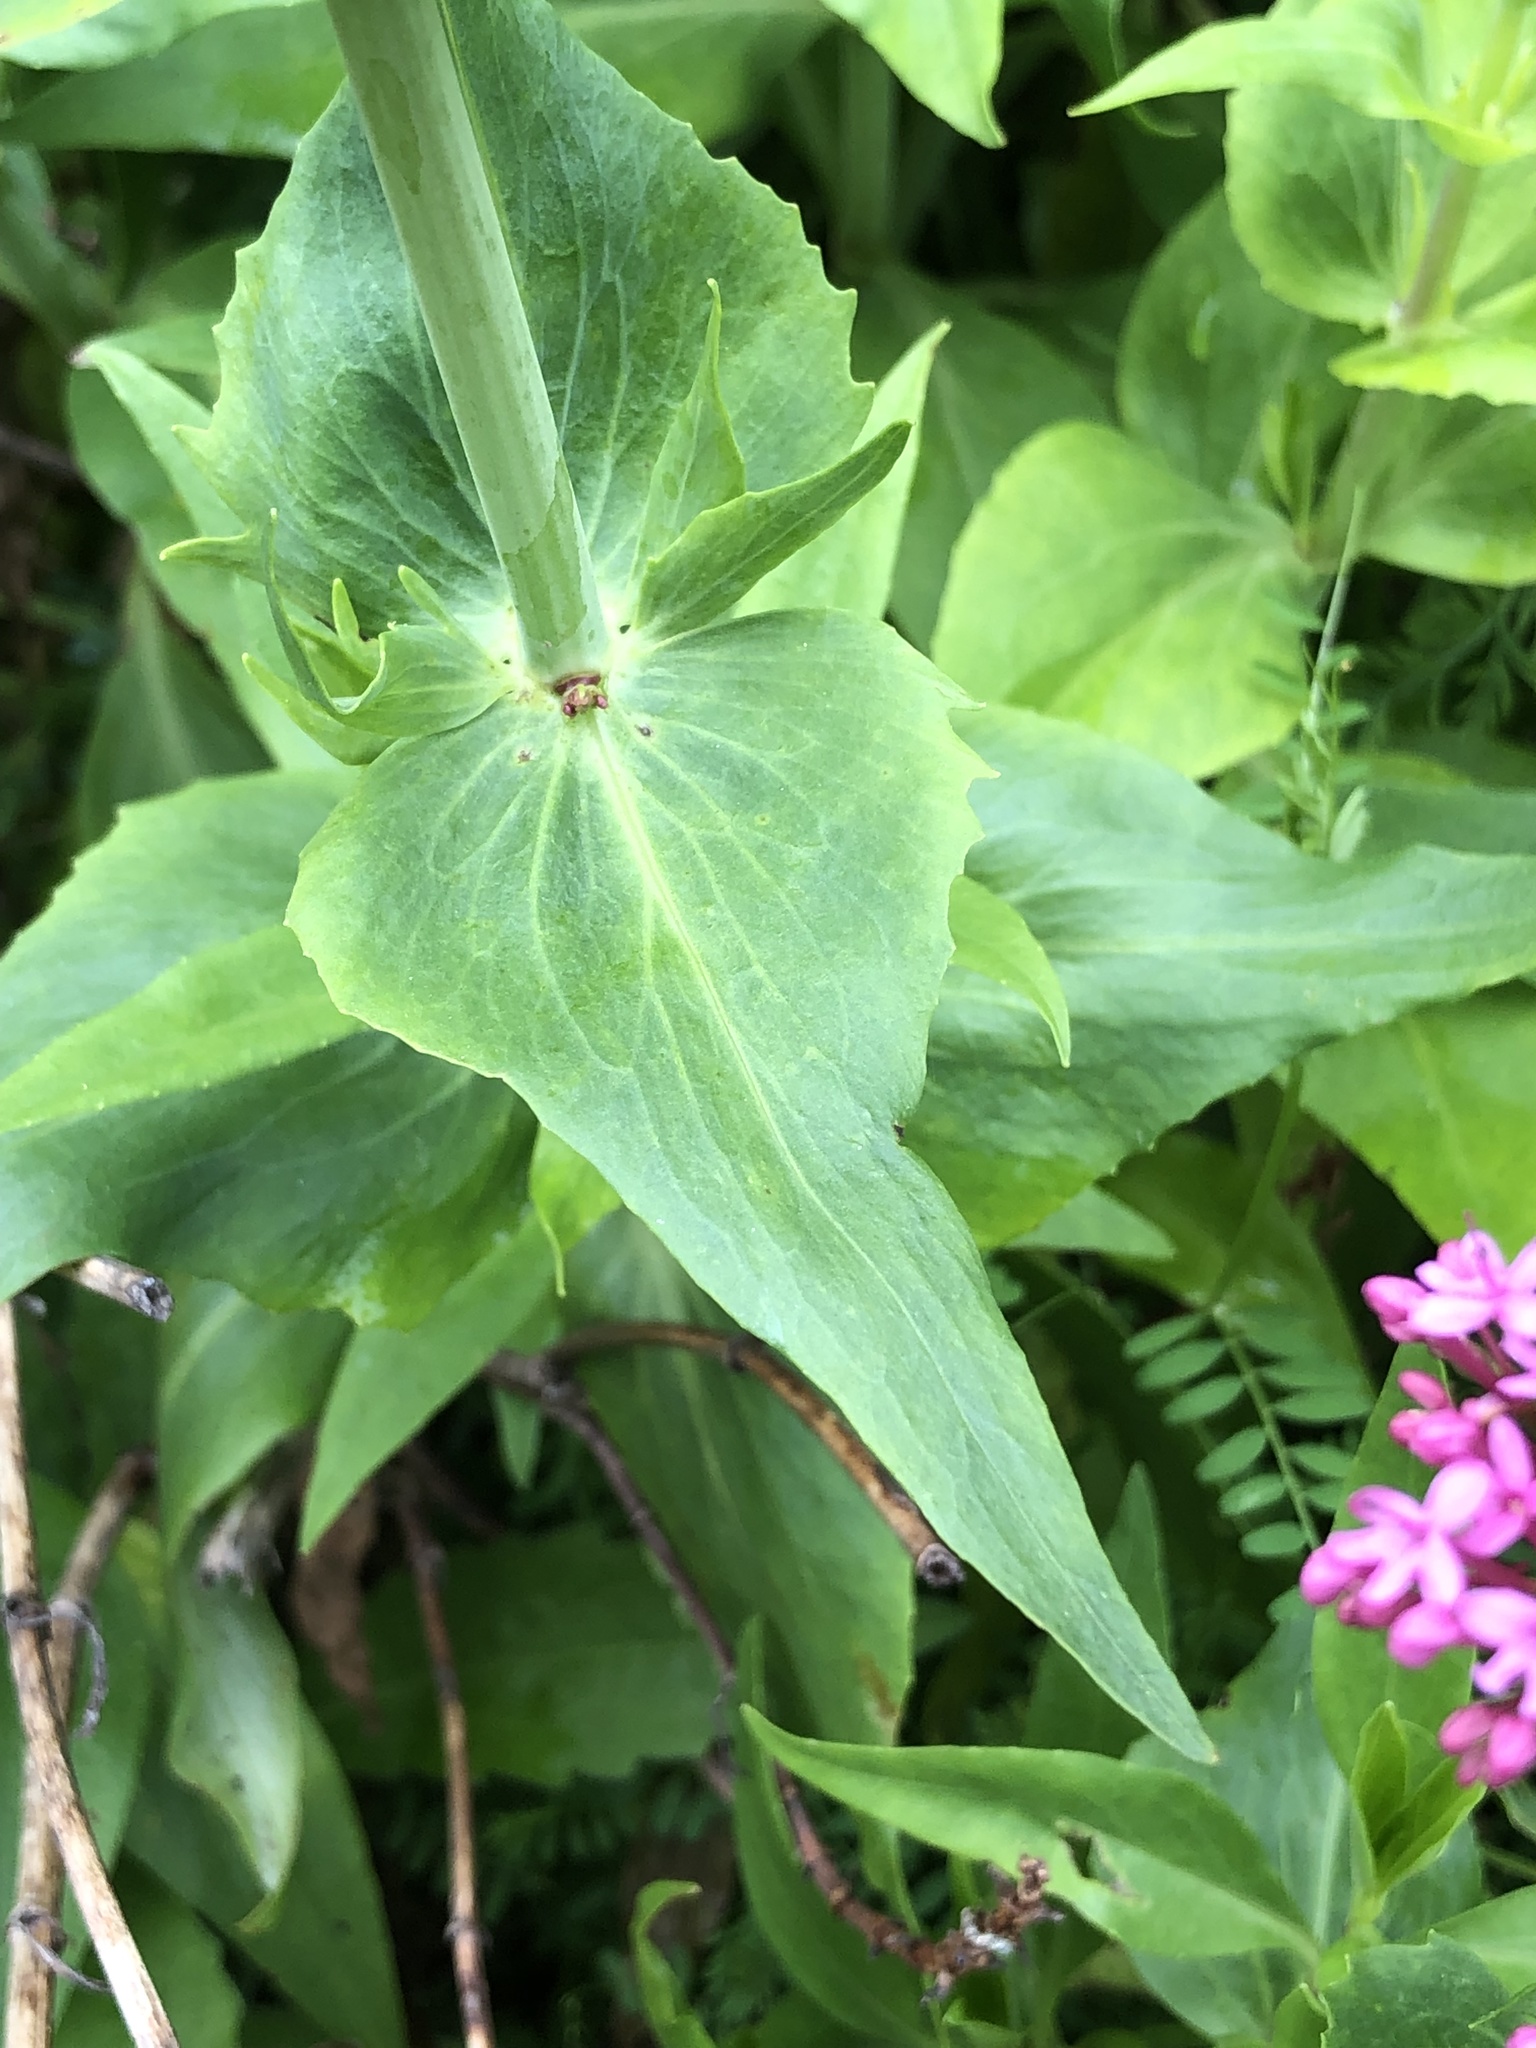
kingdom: Plantae
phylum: Tracheophyta
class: Magnoliopsida
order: Dipsacales
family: Caprifoliaceae
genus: Centranthus
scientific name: Centranthus ruber
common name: Red valerian
